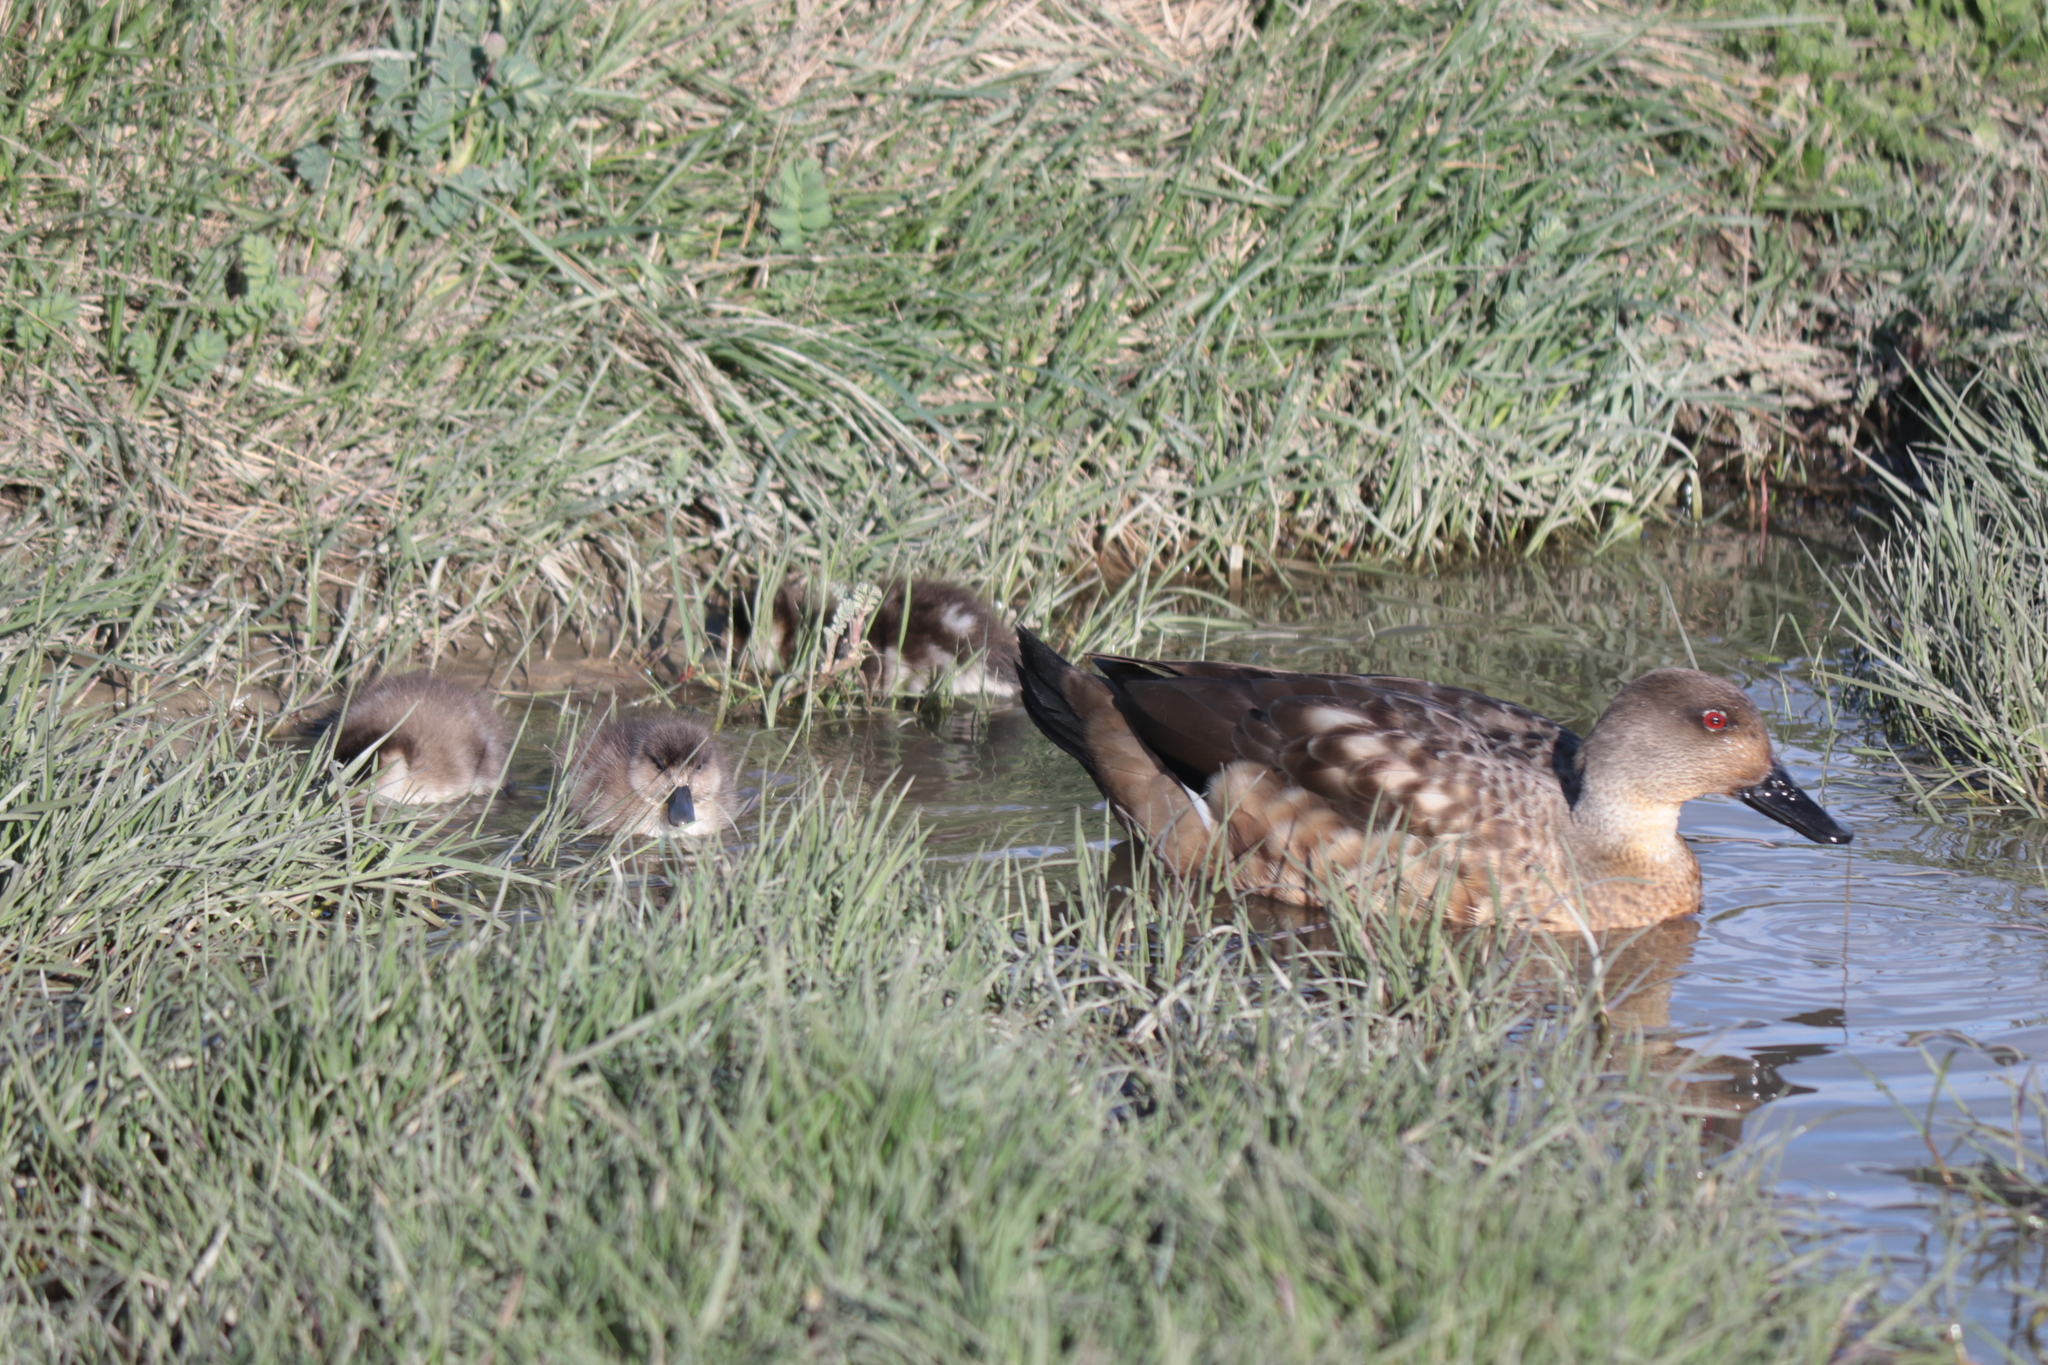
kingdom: Animalia
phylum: Chordata
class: Aves
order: Anseriformes
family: Anatidae
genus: Lophonetta
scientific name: Lophonetta specularioides
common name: Crested duck
